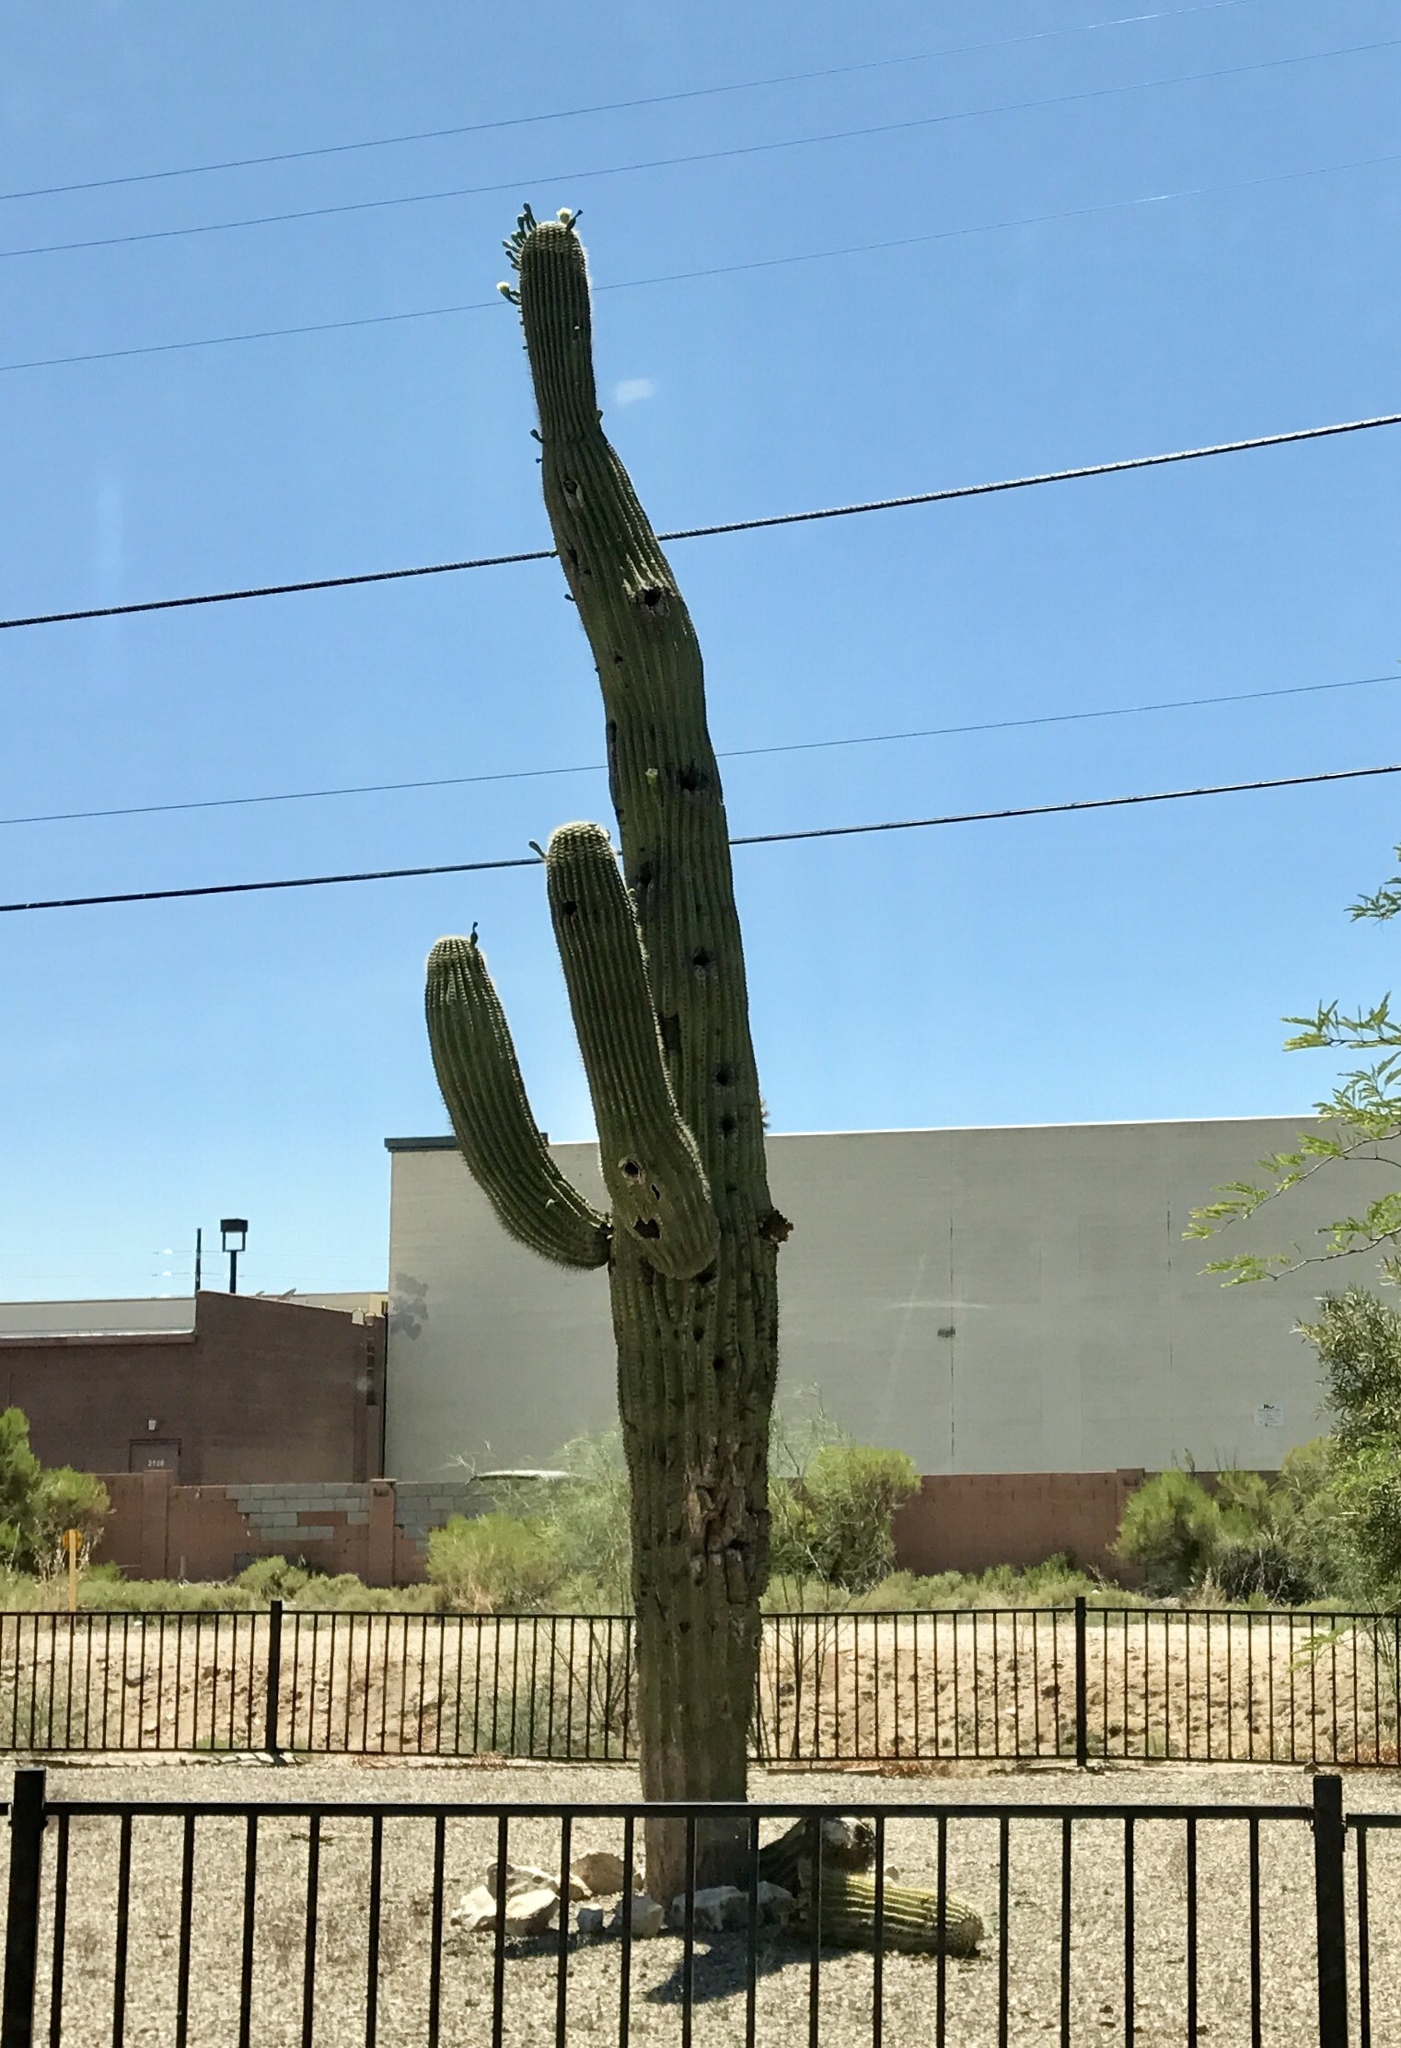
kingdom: Plantae
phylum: Tracheophyta
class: Magnoliopsida
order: Caryophyllales
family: Cactaceae
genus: Carnegiea
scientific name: Carnegiea gigantea
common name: Saguaro
